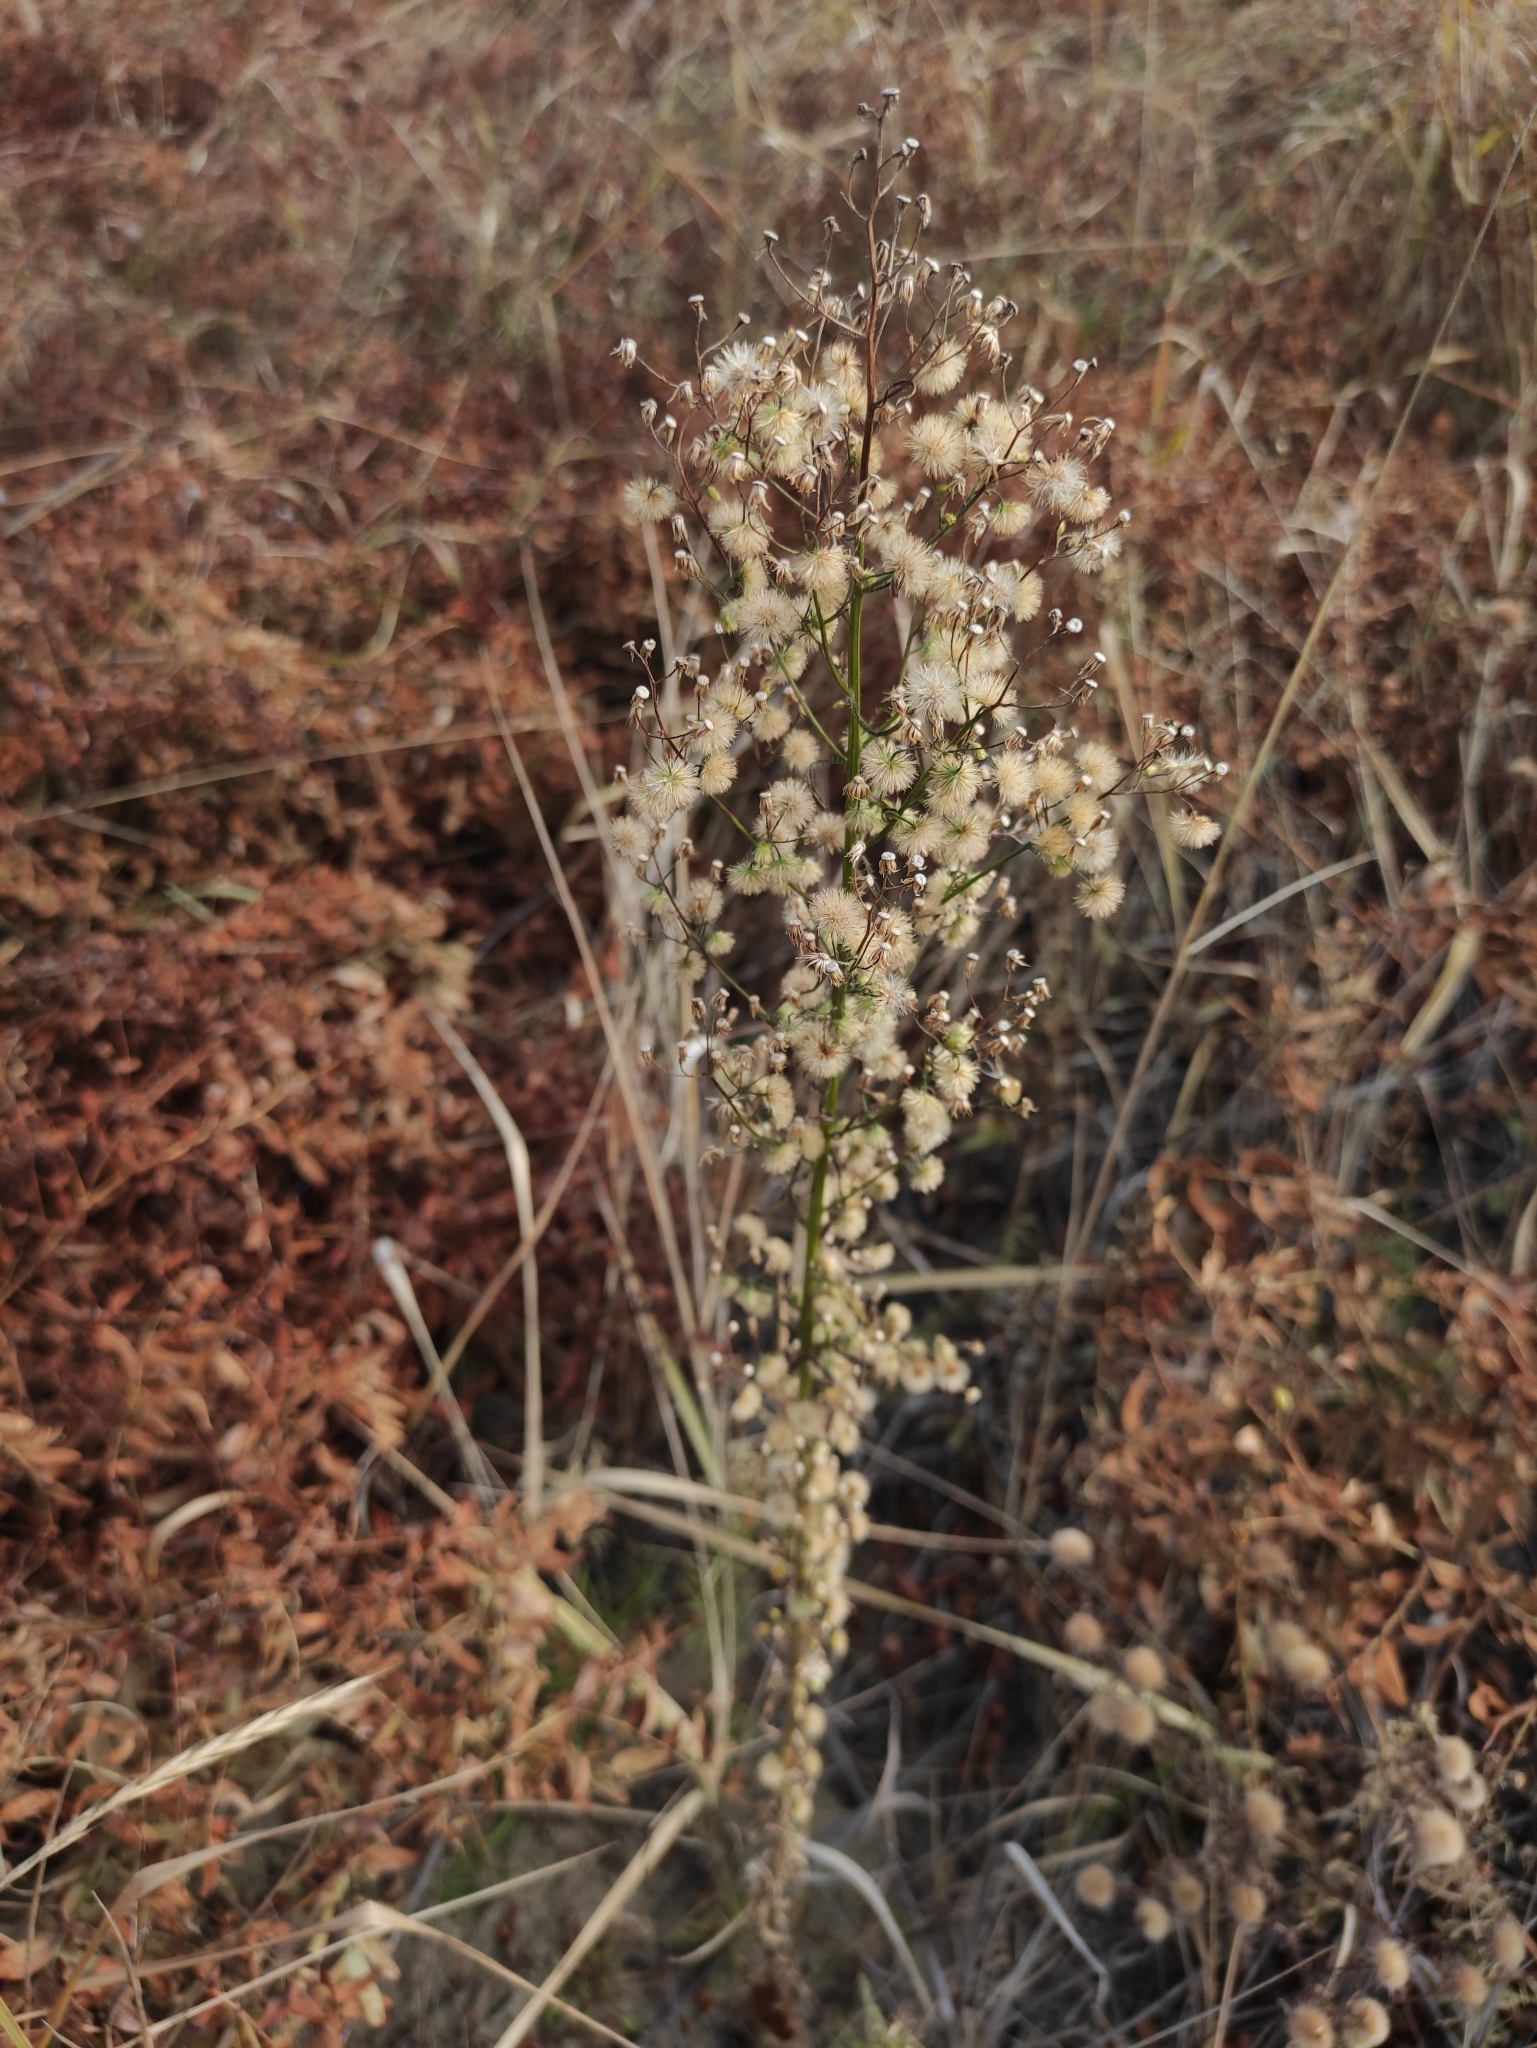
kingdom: Plantae
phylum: Tracheophyta
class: Magnoliopsida
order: Asterales
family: Asteraceae
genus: Erigeron
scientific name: Erigeron canadensis
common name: Canadian fleabane
